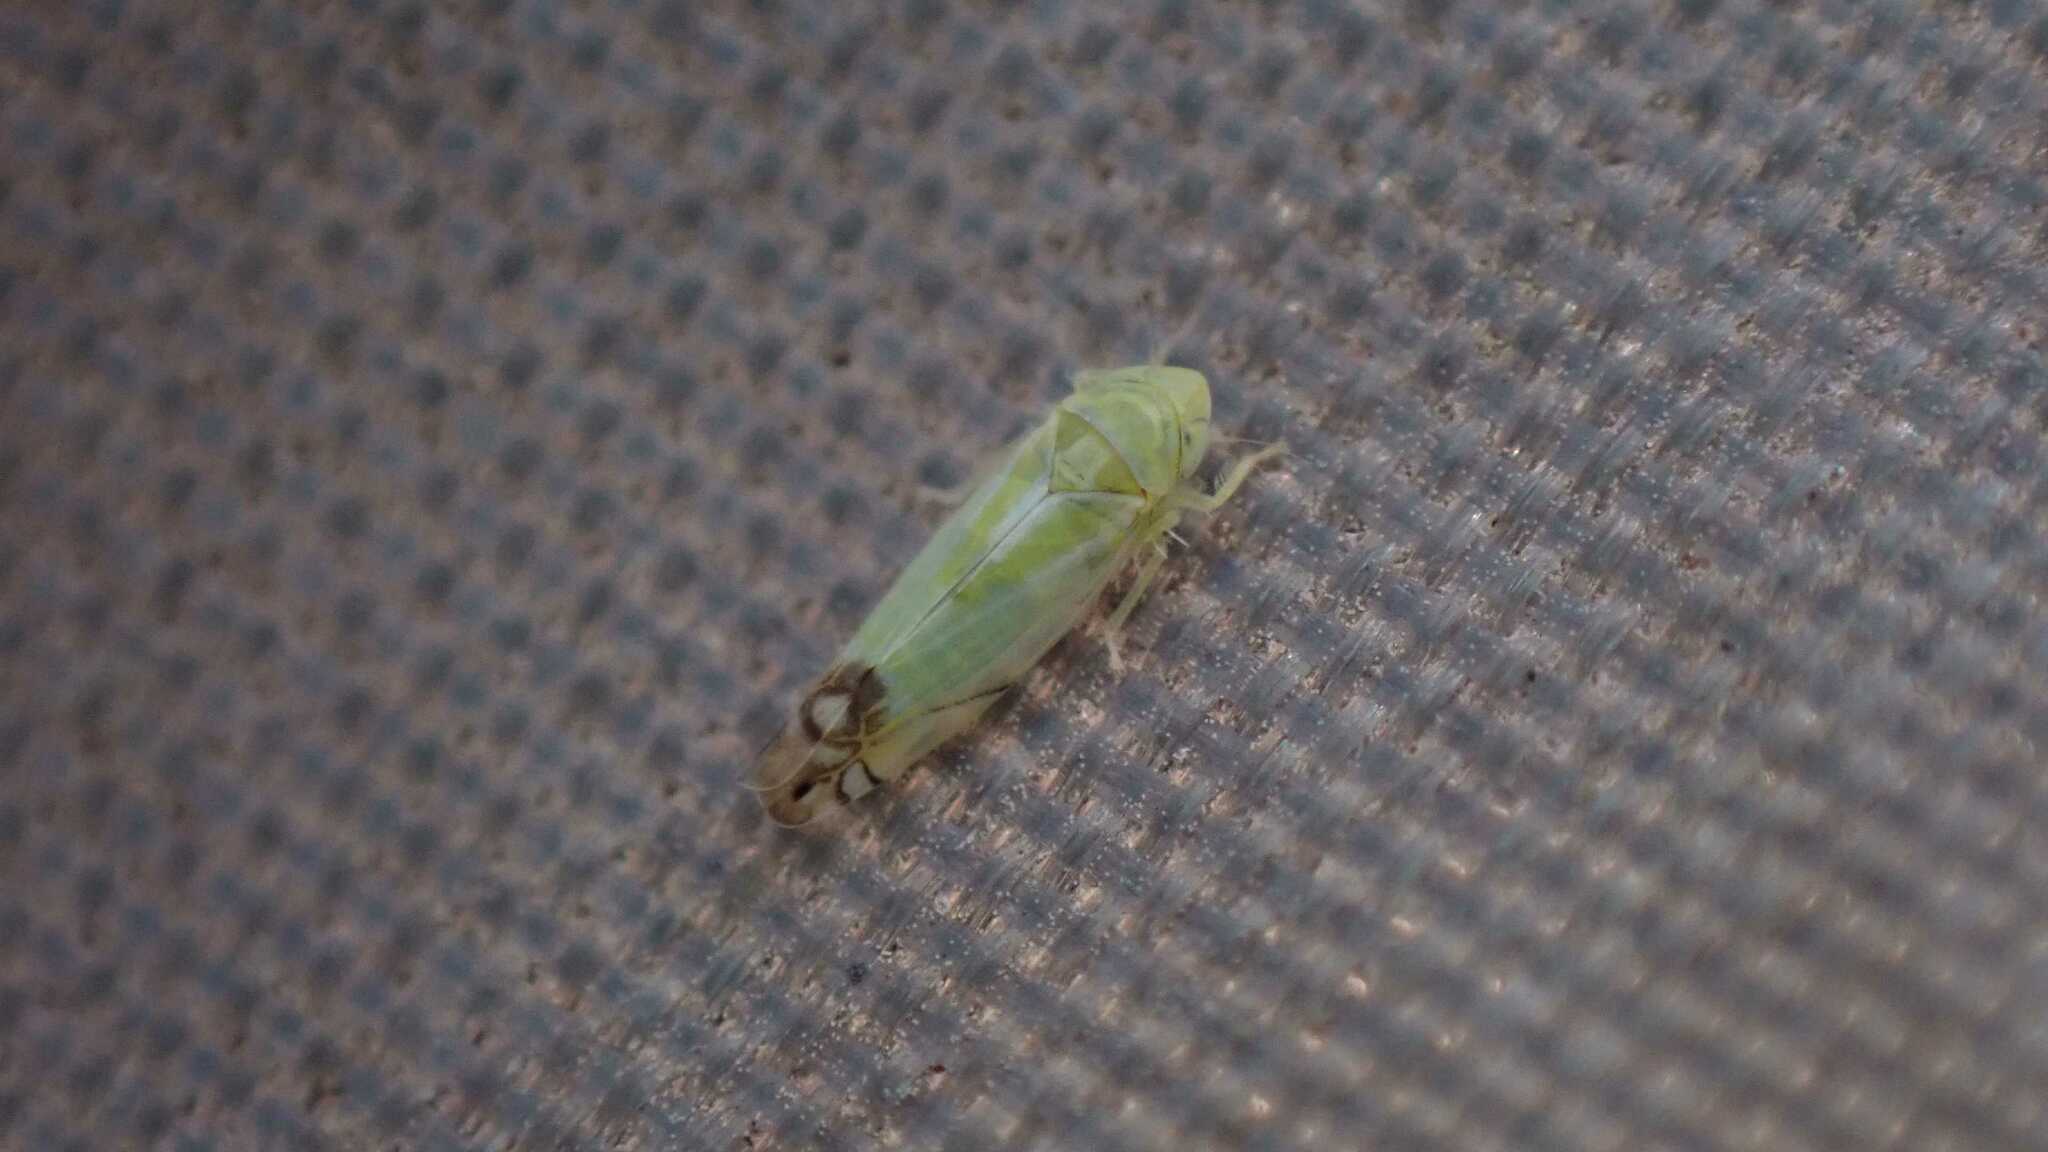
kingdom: Animalia
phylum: Arthropoda
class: Insecta
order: Hemiptera
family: Cicadellidae
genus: Zyginella
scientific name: Zyginella pulchra
